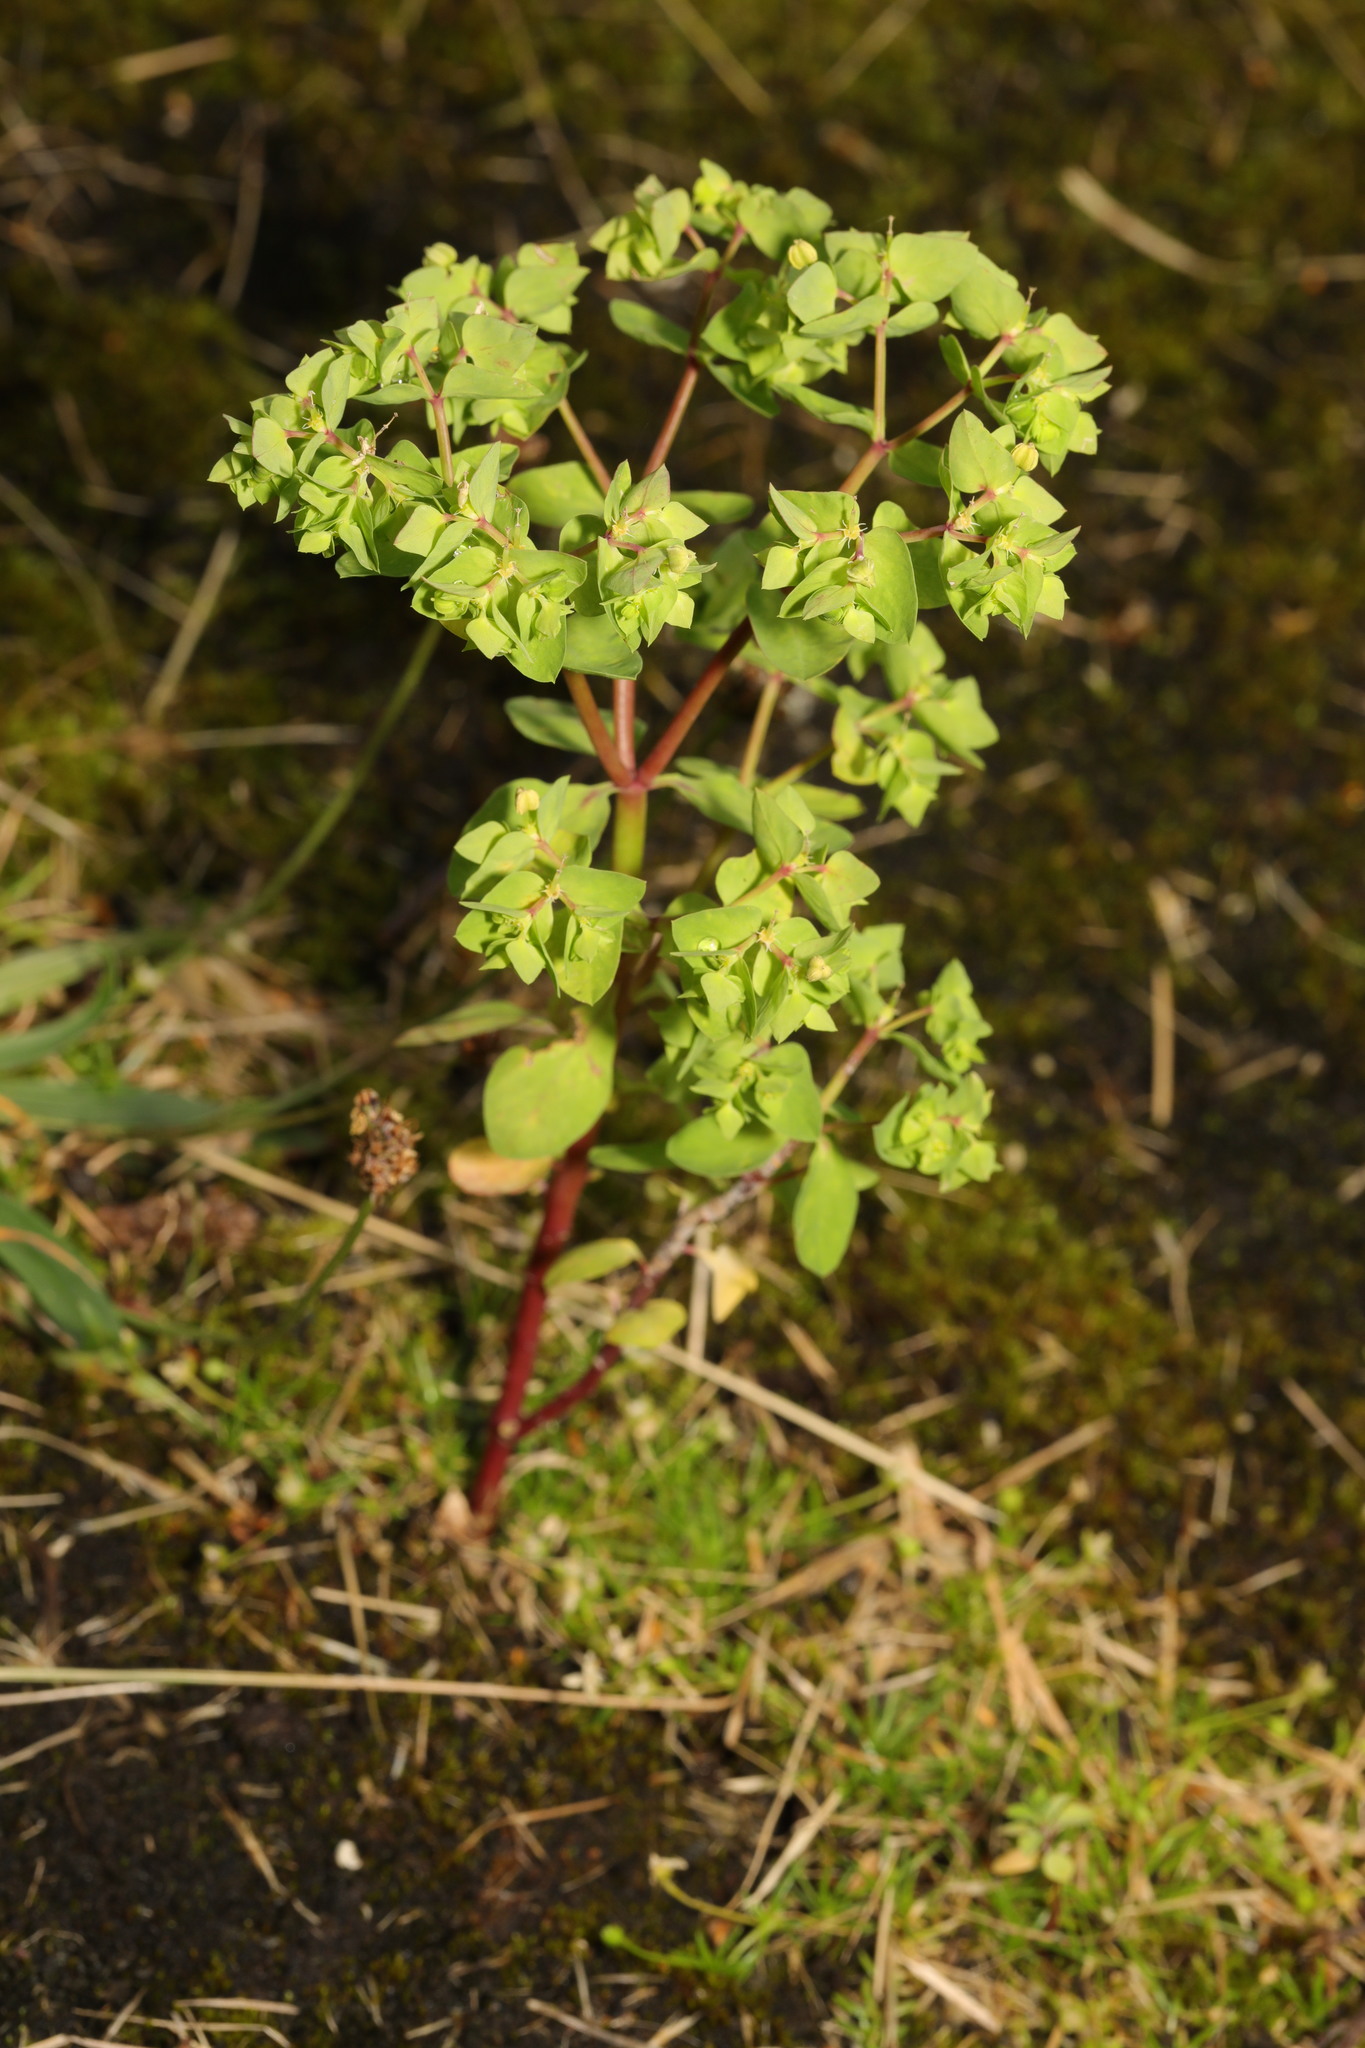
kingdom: Plantae
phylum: Tracheophyta
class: Magnoliopsida
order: Malpighiales
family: Euphorbiaceae
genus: Euphorbia
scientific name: Euphorbia peplus
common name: Petty spurge
